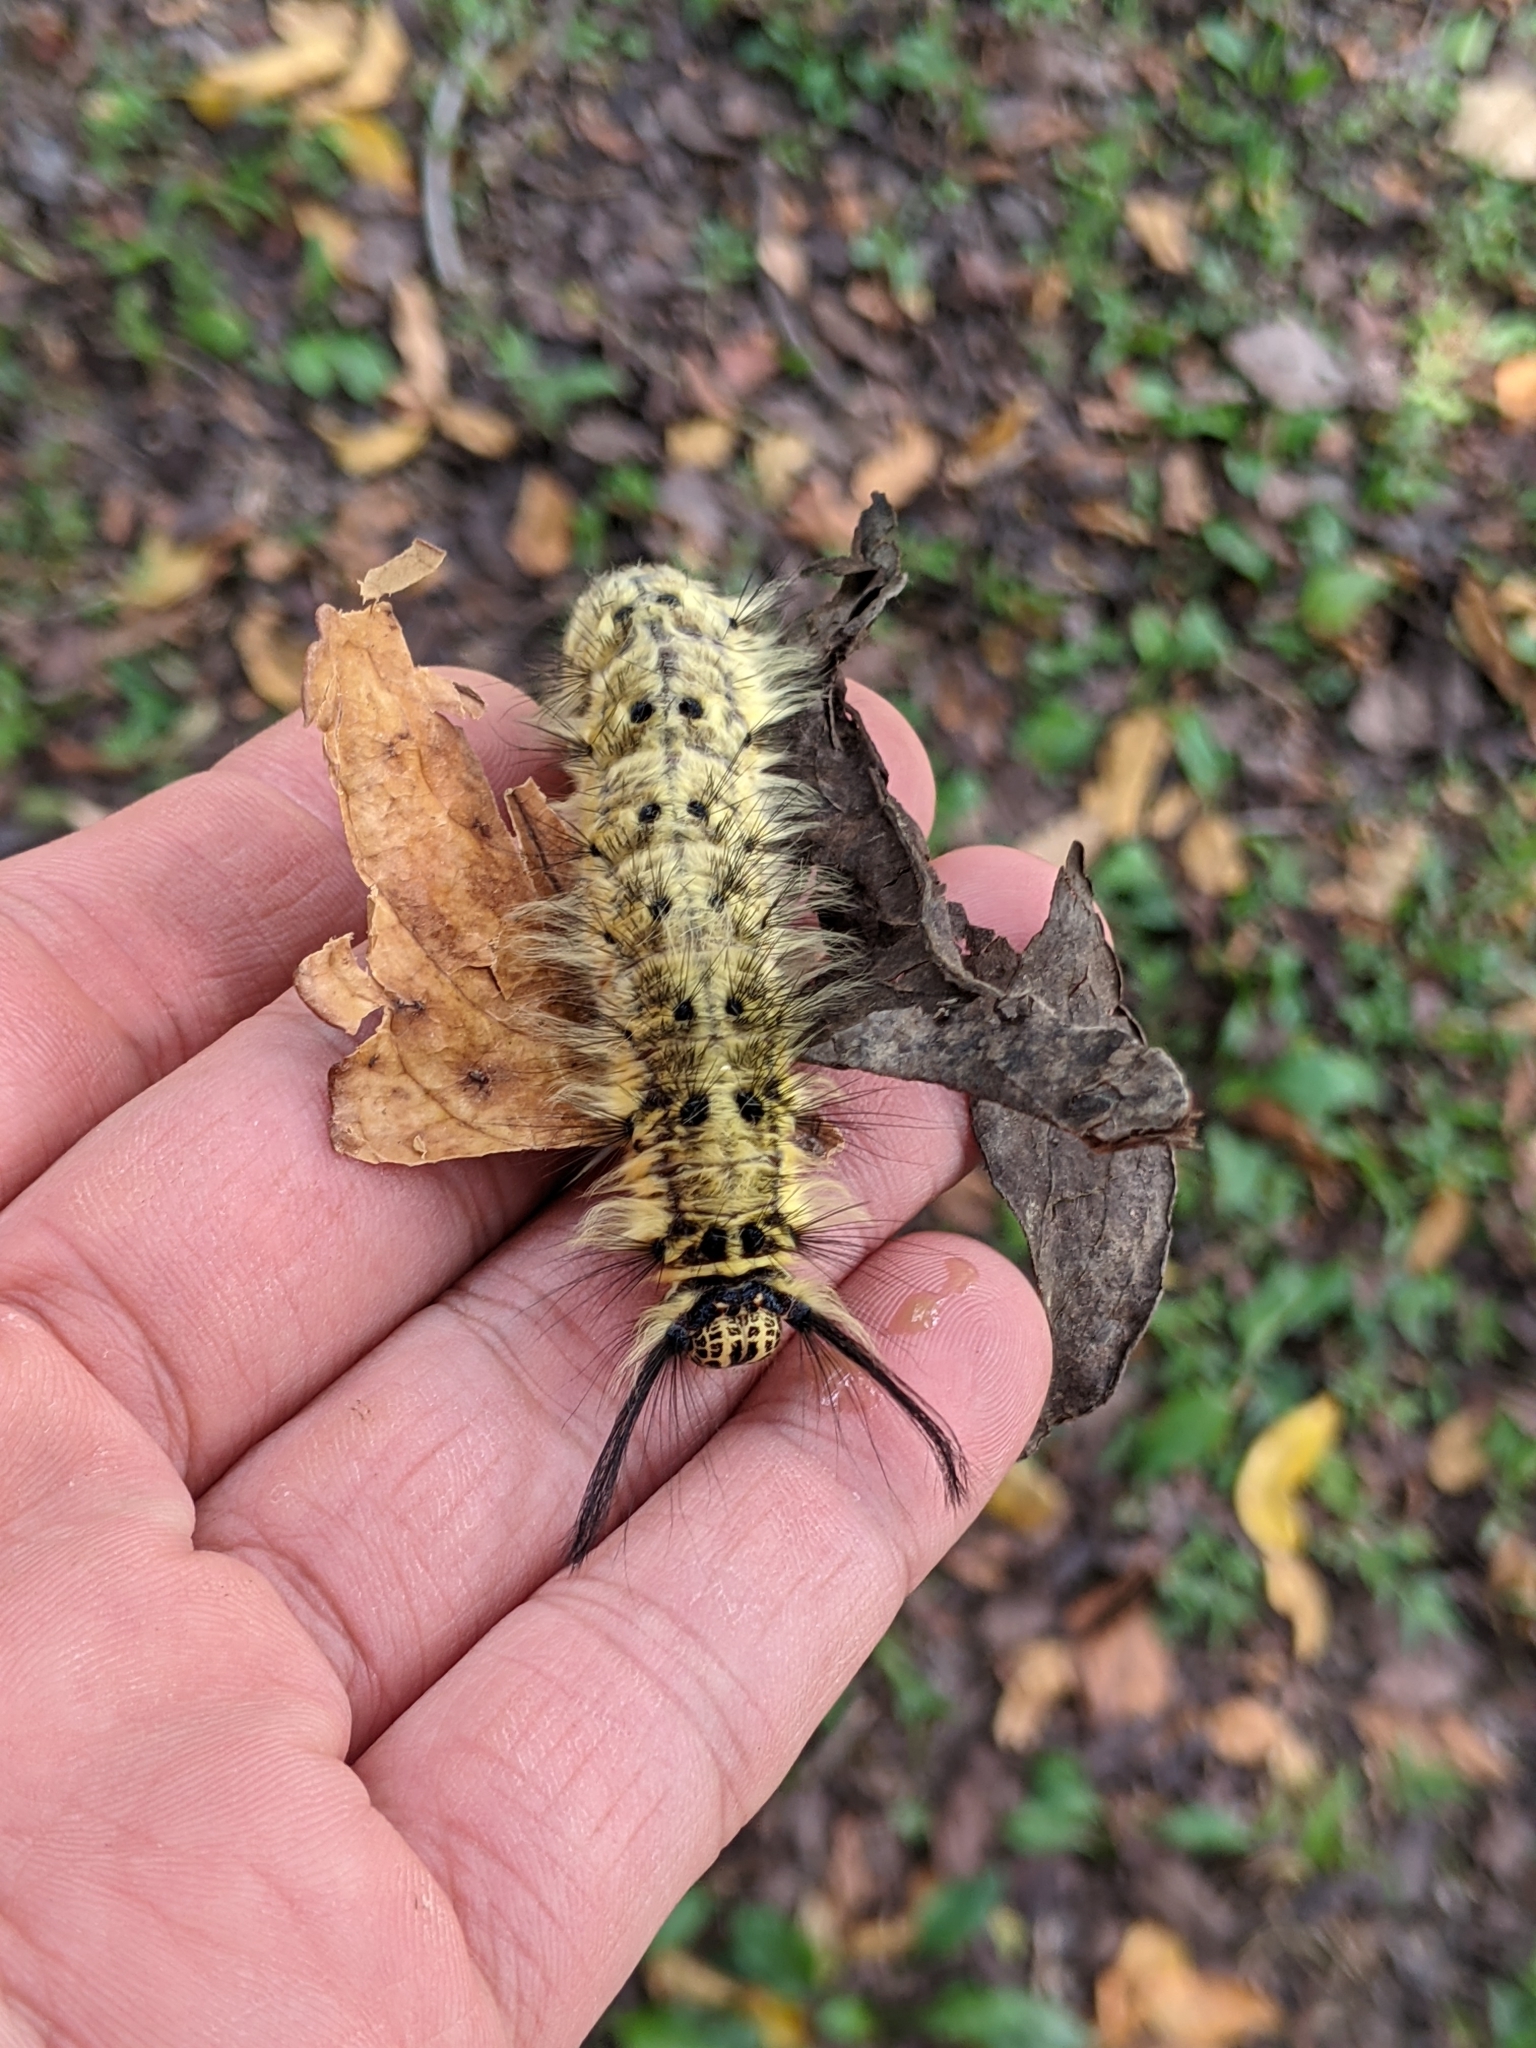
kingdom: Animalia
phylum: Arthropoda
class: Insecta
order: Lepidoptera
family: Lasiocampidae
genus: Trabala
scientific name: Trabala vishnou
